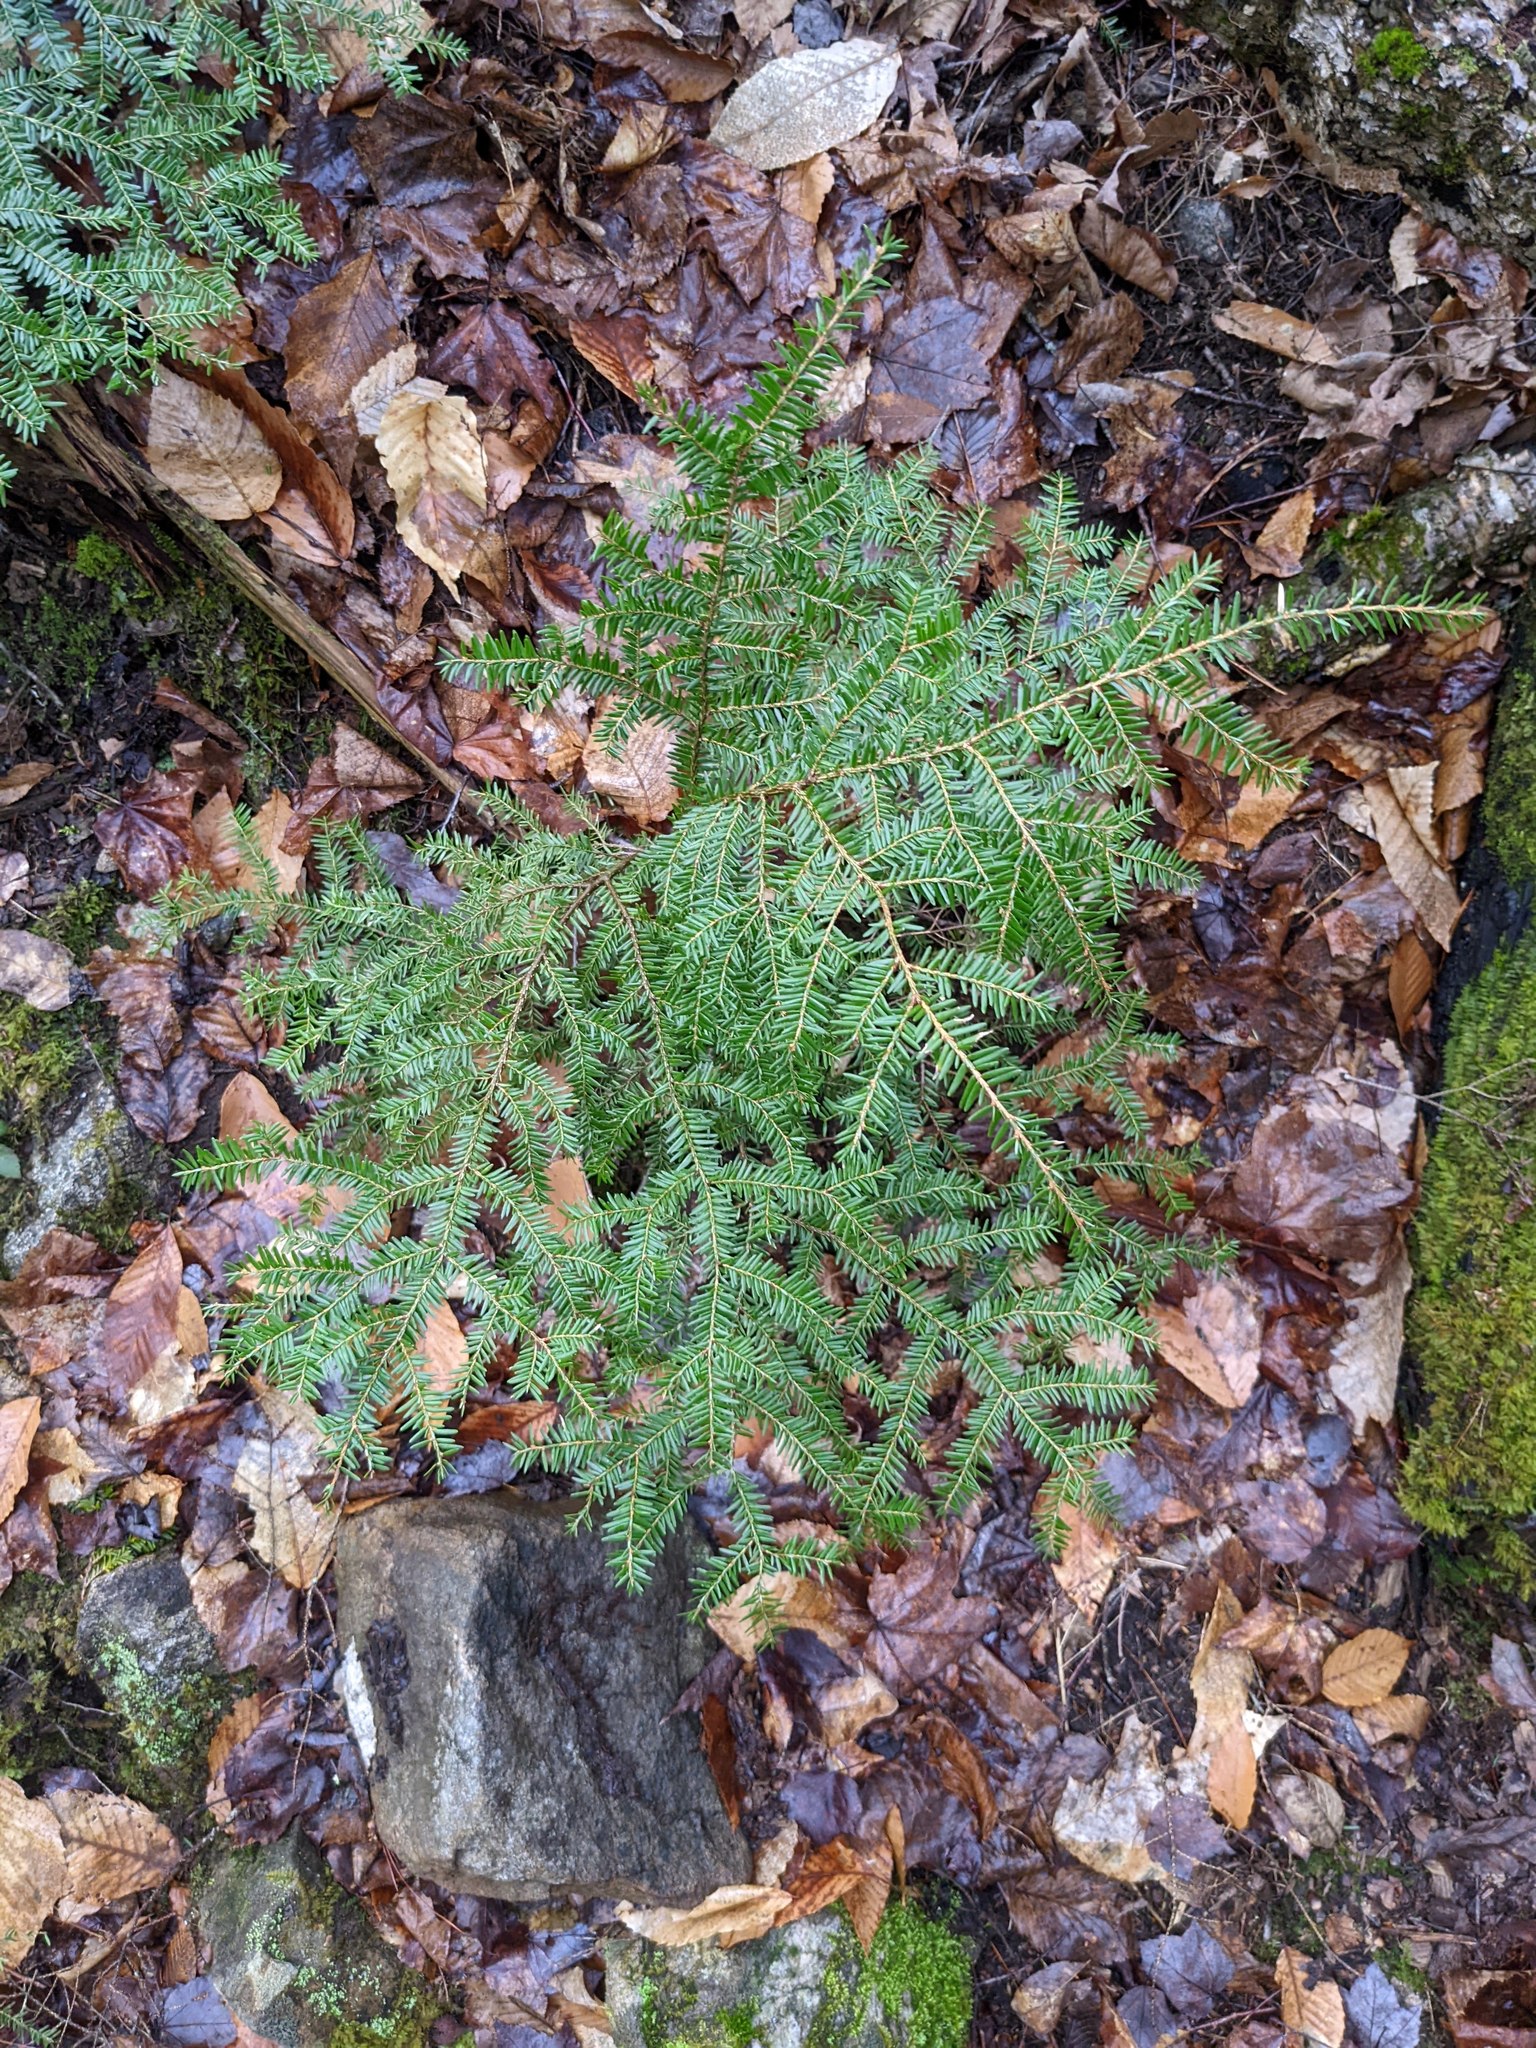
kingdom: Plantae
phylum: Tracheophyta
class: Pinopsida
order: Pinales
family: Pinaceae
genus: Tsuga
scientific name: Tsuga canadensis
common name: Eastern hemlock
